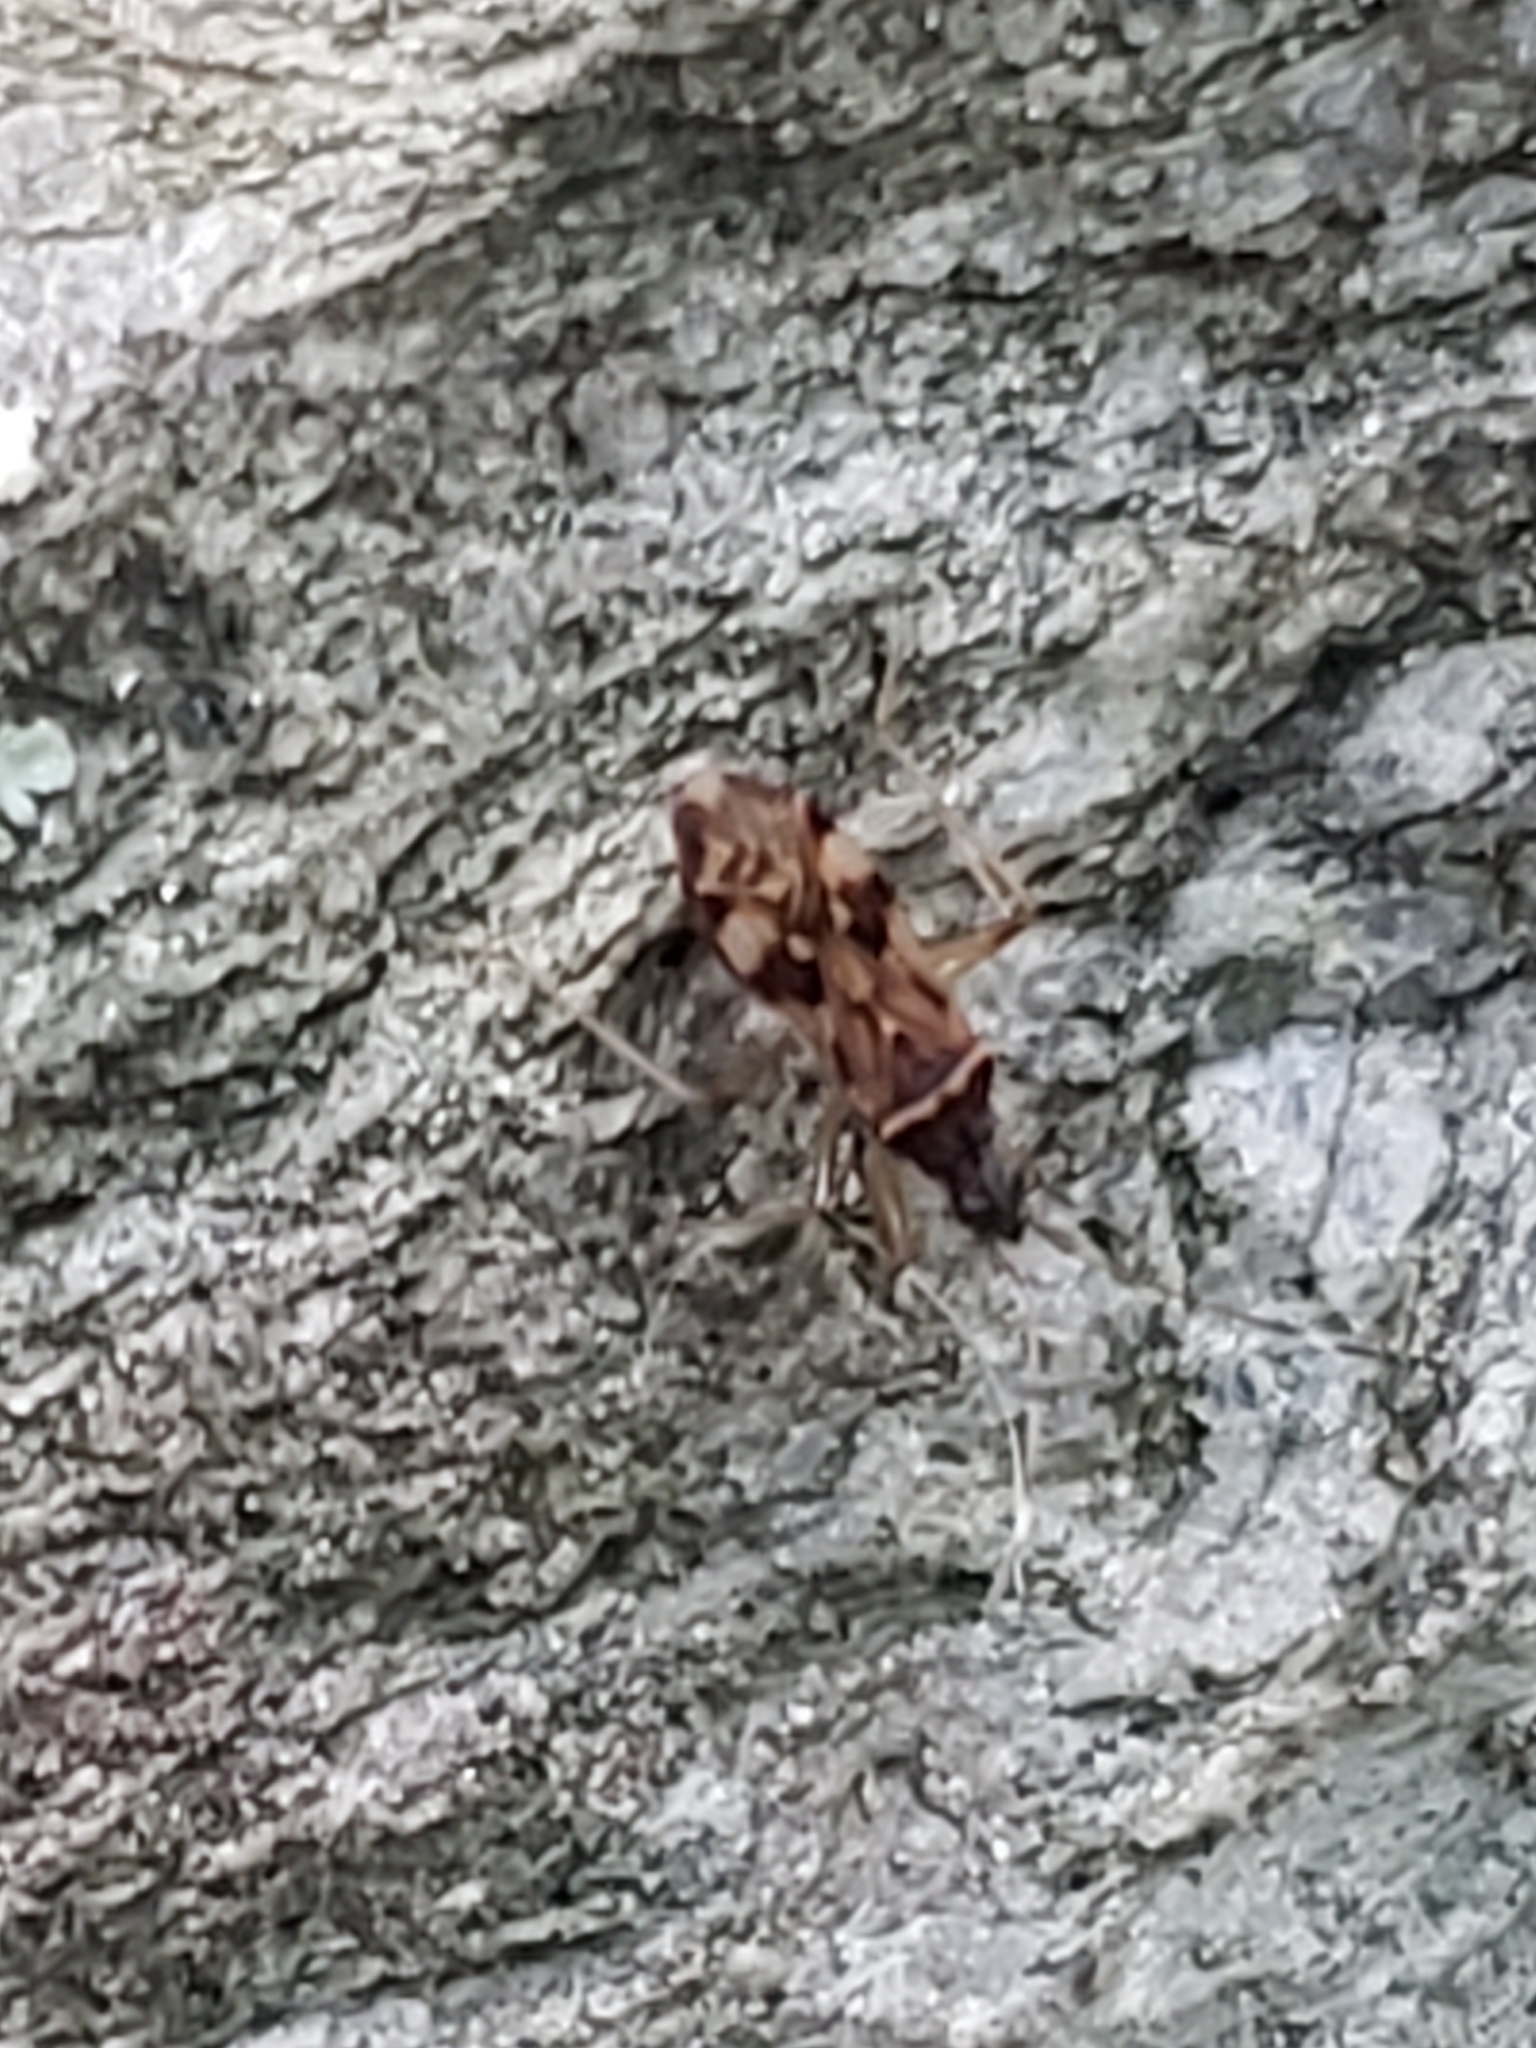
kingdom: Animalia
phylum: Arthropoda
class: Insecta
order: Hemiptera
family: Rhyparochromidae
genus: Ozophora
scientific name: Ozophora picturata
